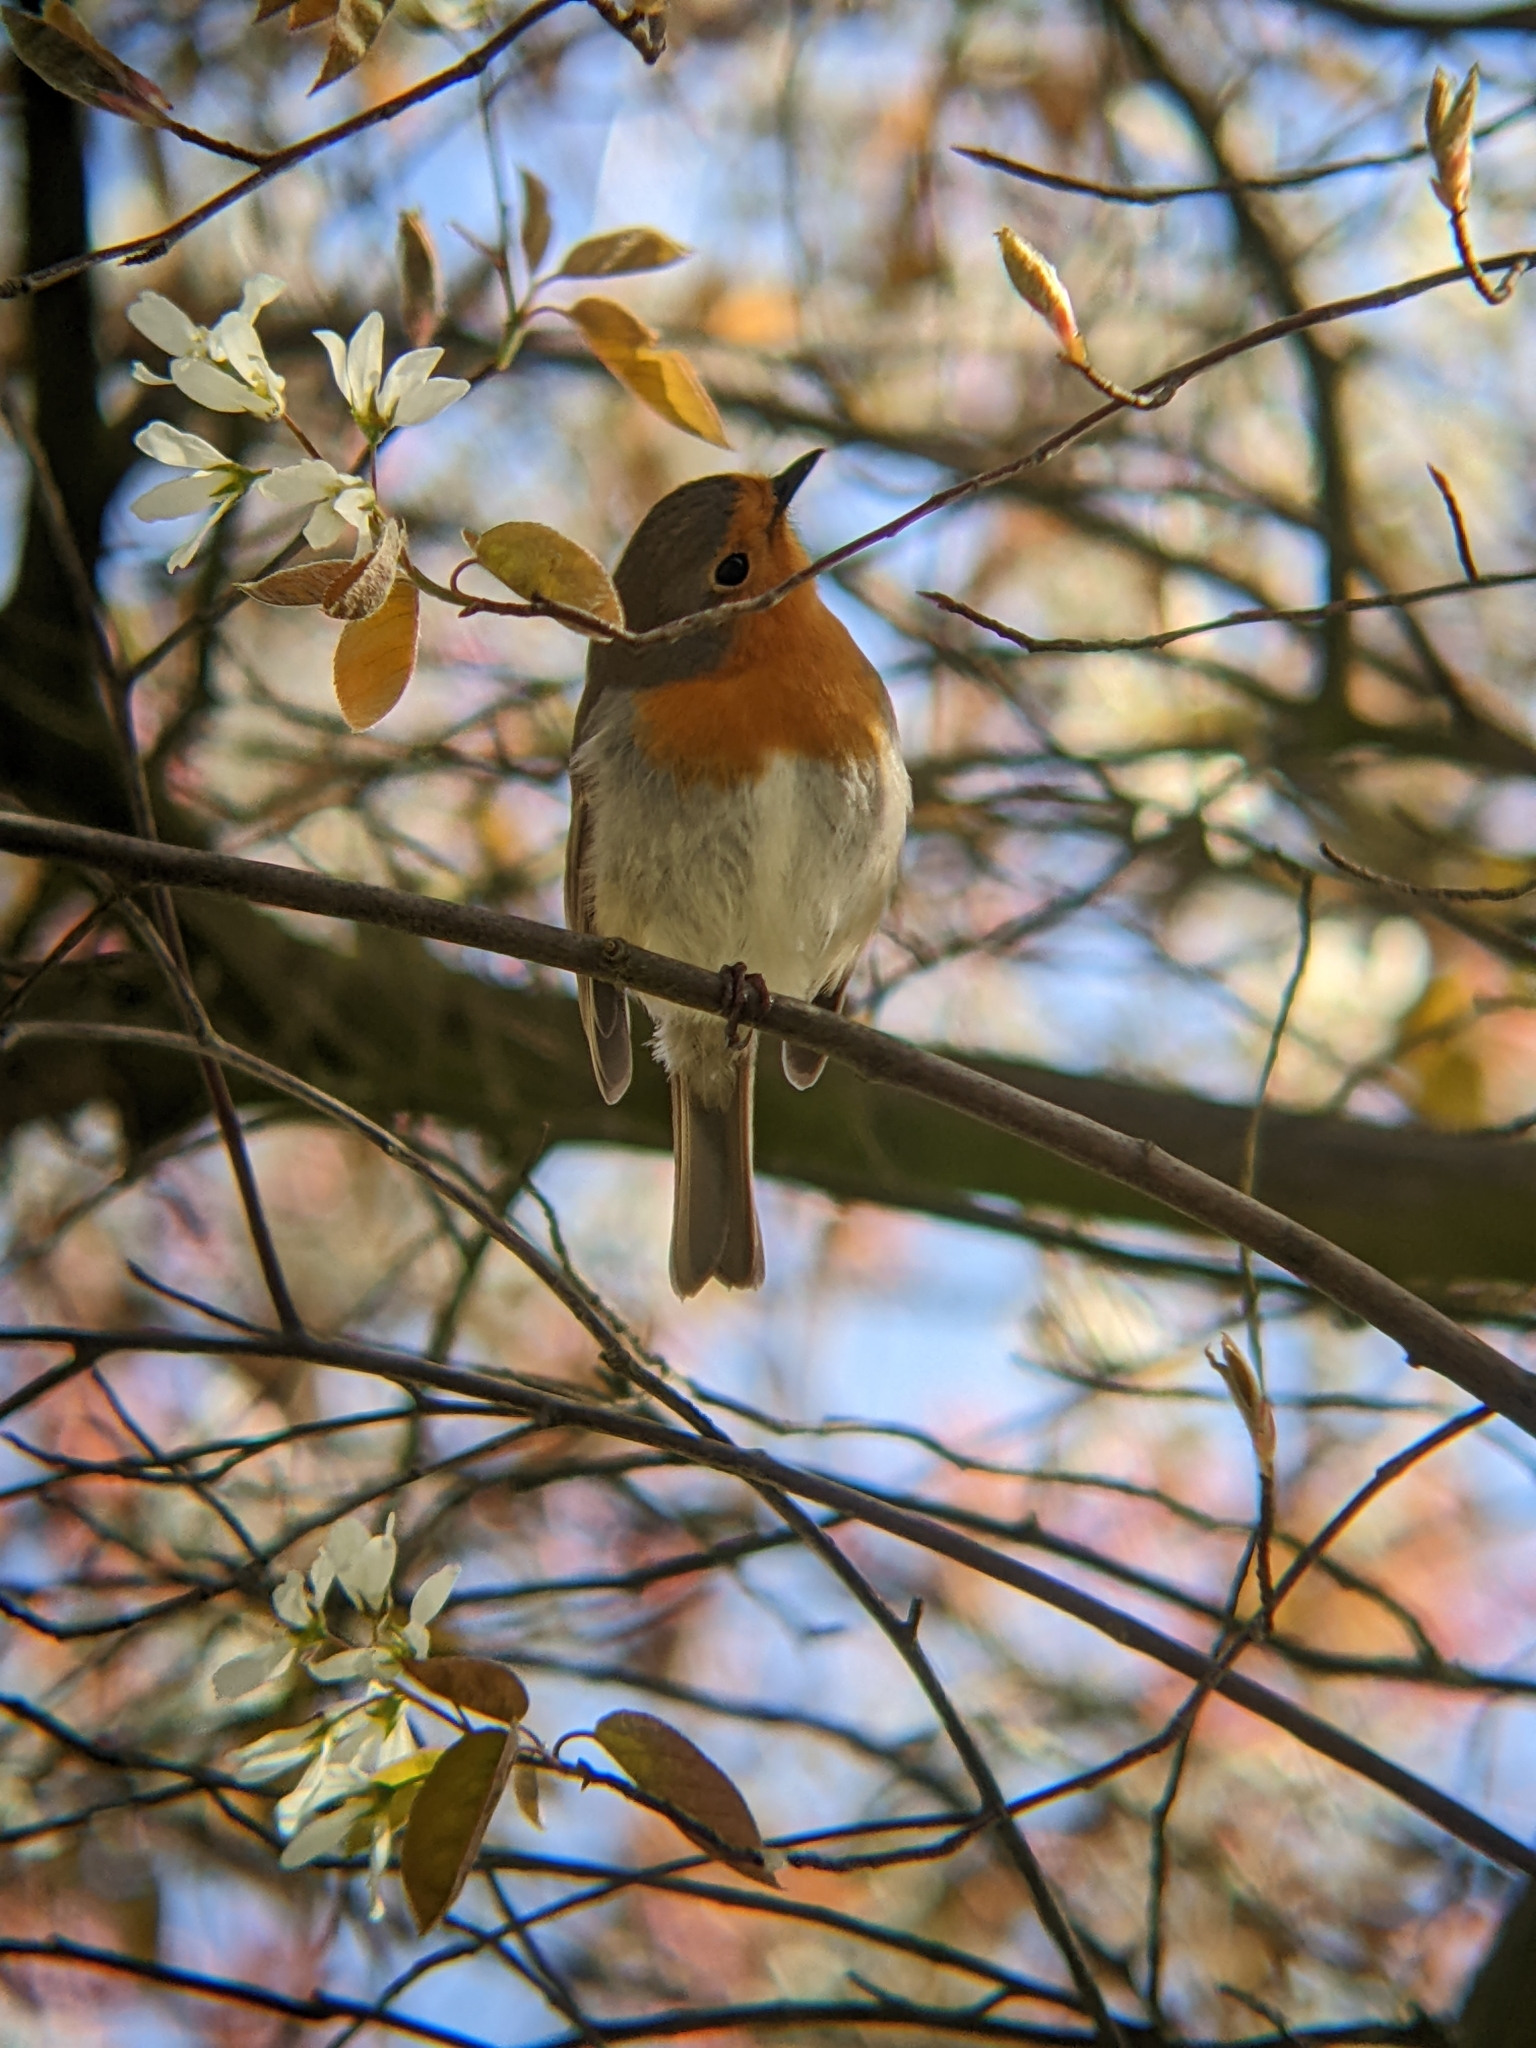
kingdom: Animalia
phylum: Chordata
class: Aves
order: Passeriformes
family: Muscicapidae
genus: Erithacus
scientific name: Erithacus rubecula
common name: European robin
